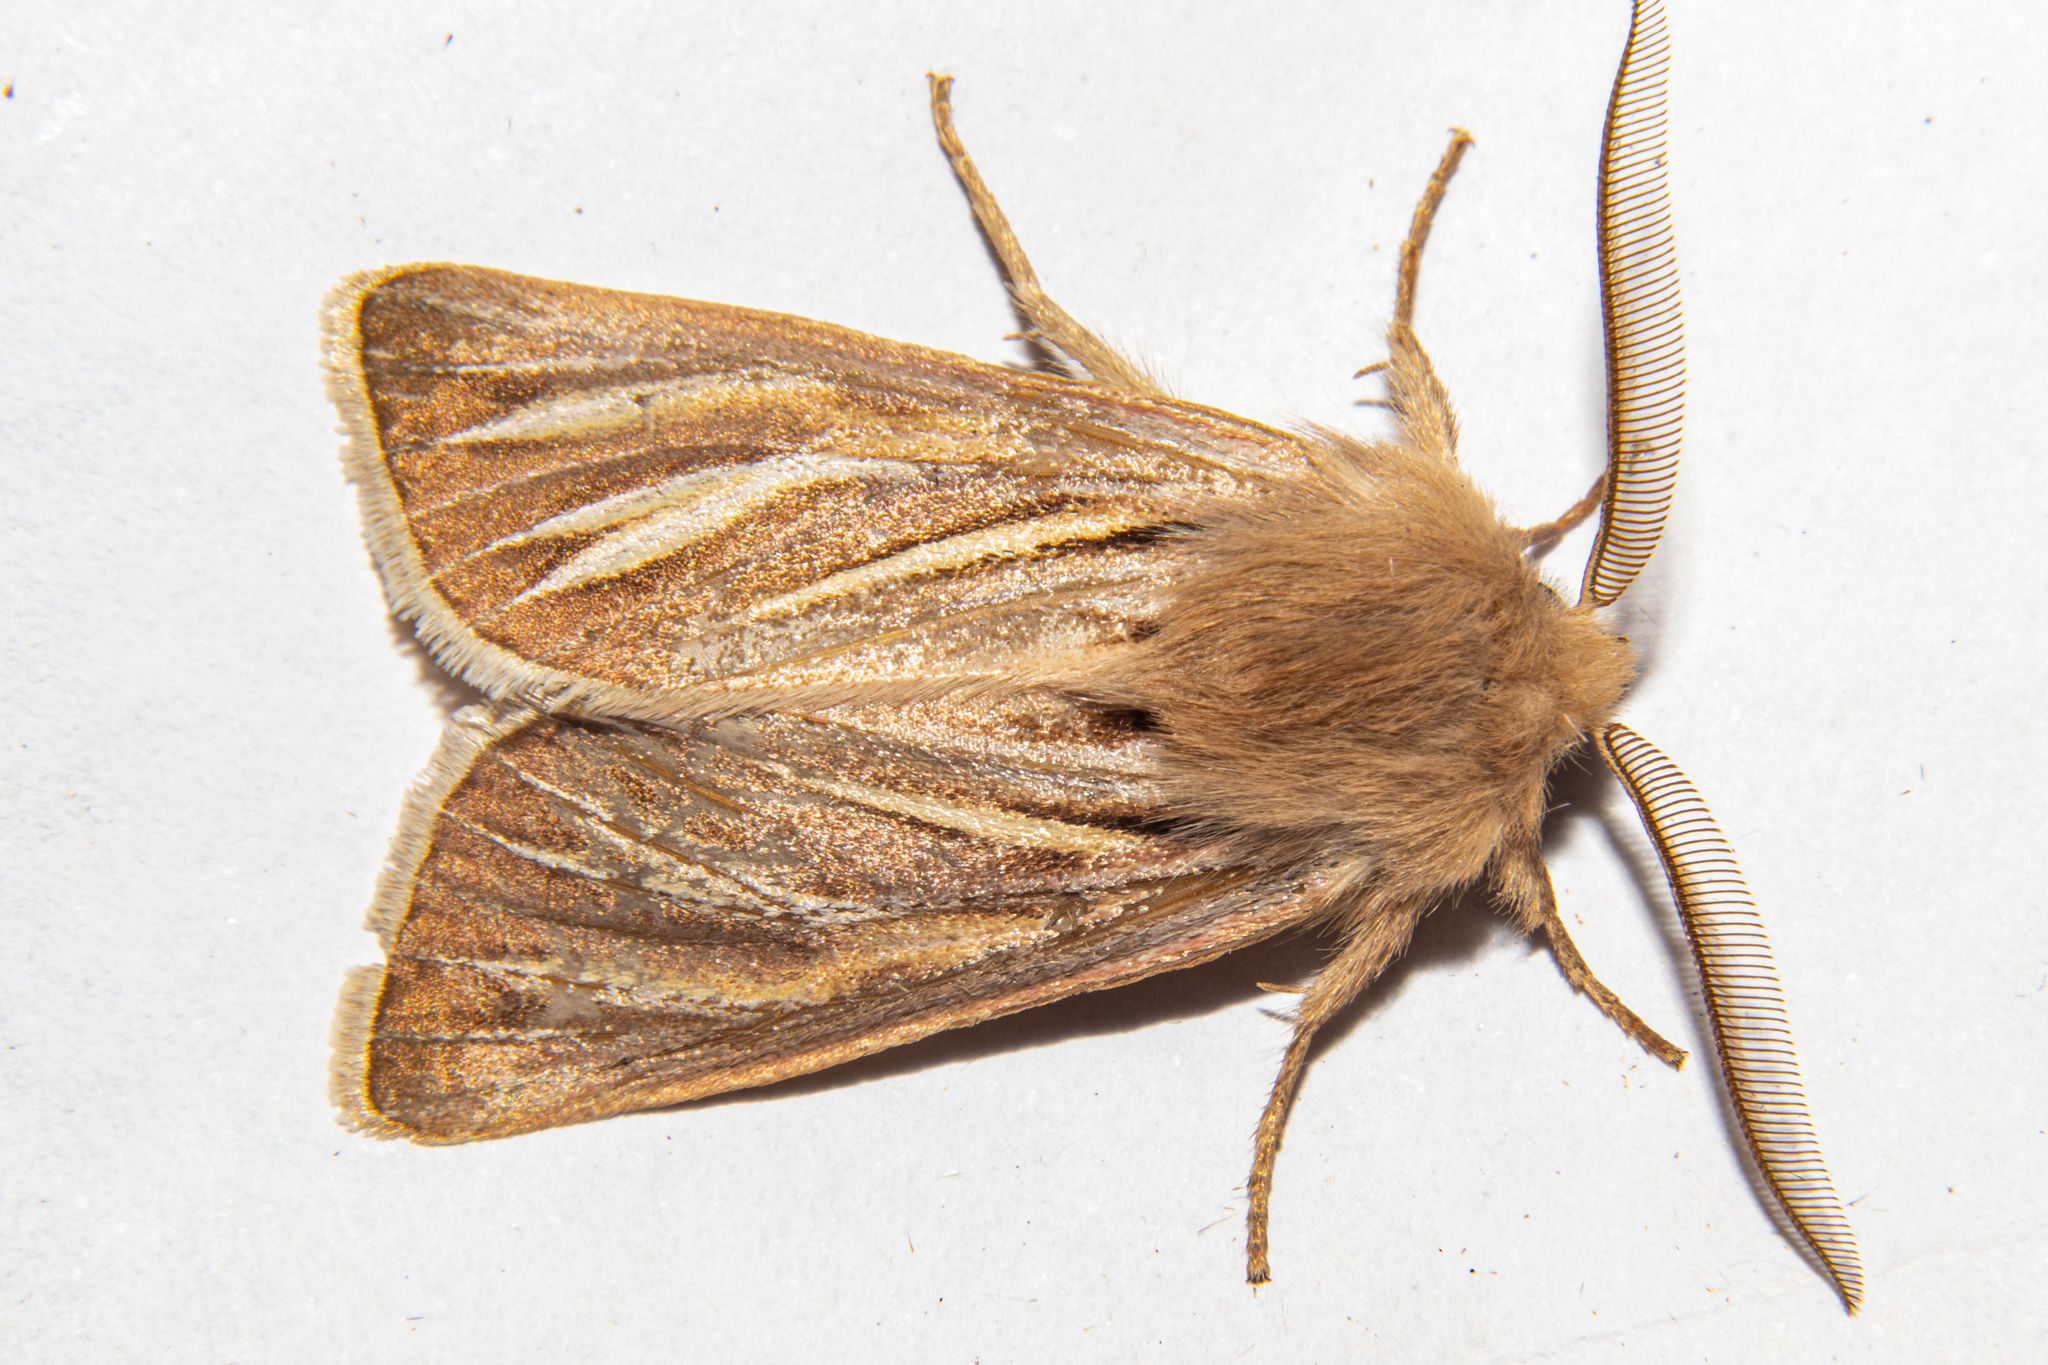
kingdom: Animalia
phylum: Arthropoda
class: Insecta
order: Lepidoptera
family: Noctuidae
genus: Ichneutica
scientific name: Ichneutica caraunias
